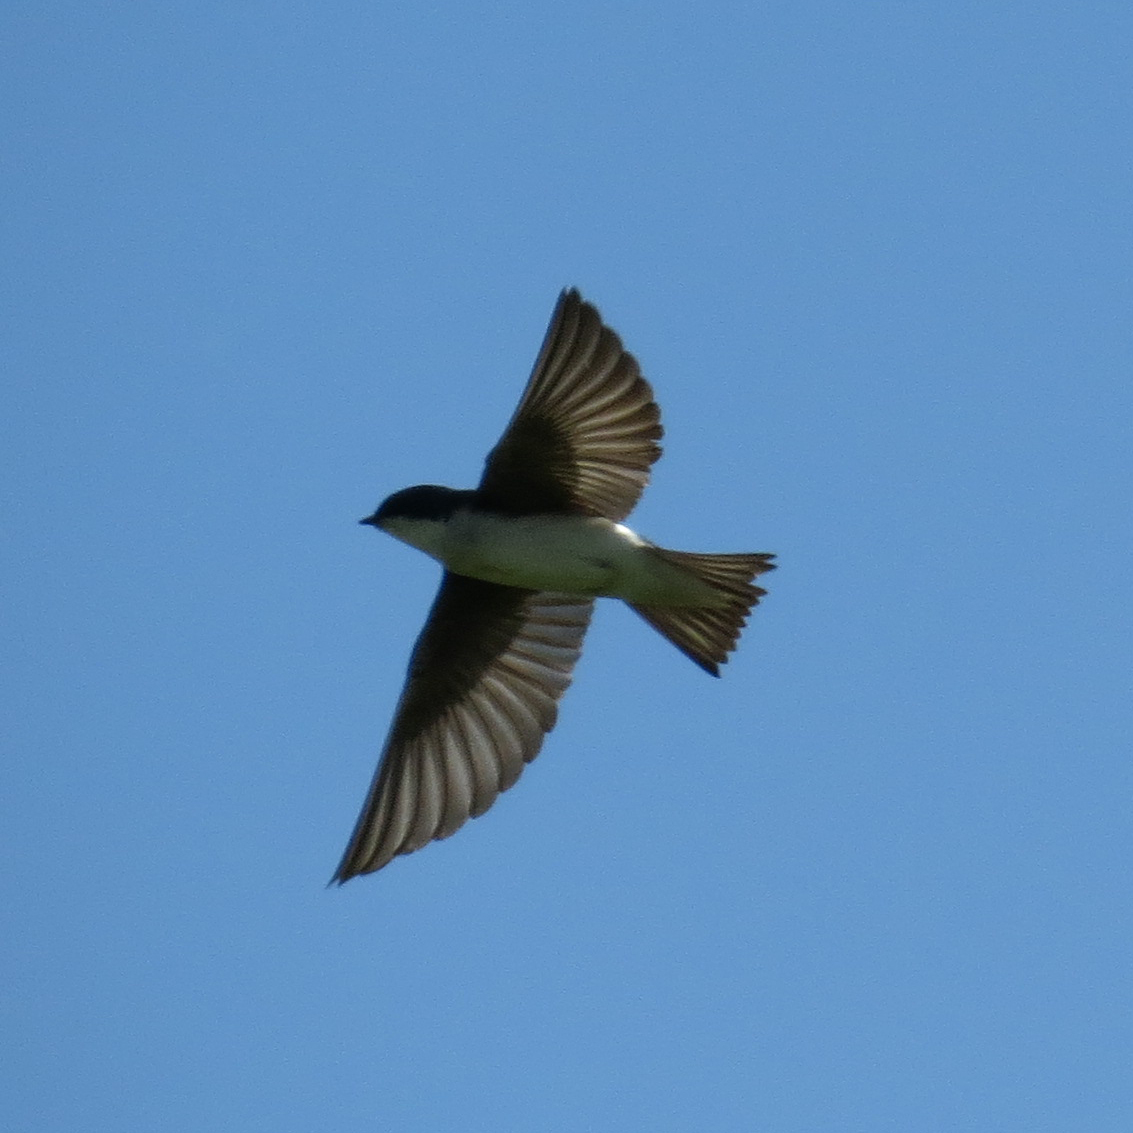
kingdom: Animalia
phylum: Chordata
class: Aves
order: Passeriformes
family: Hirundinidae
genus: Tachycineta
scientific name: Tachycineta bicolor
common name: Tree swallow
